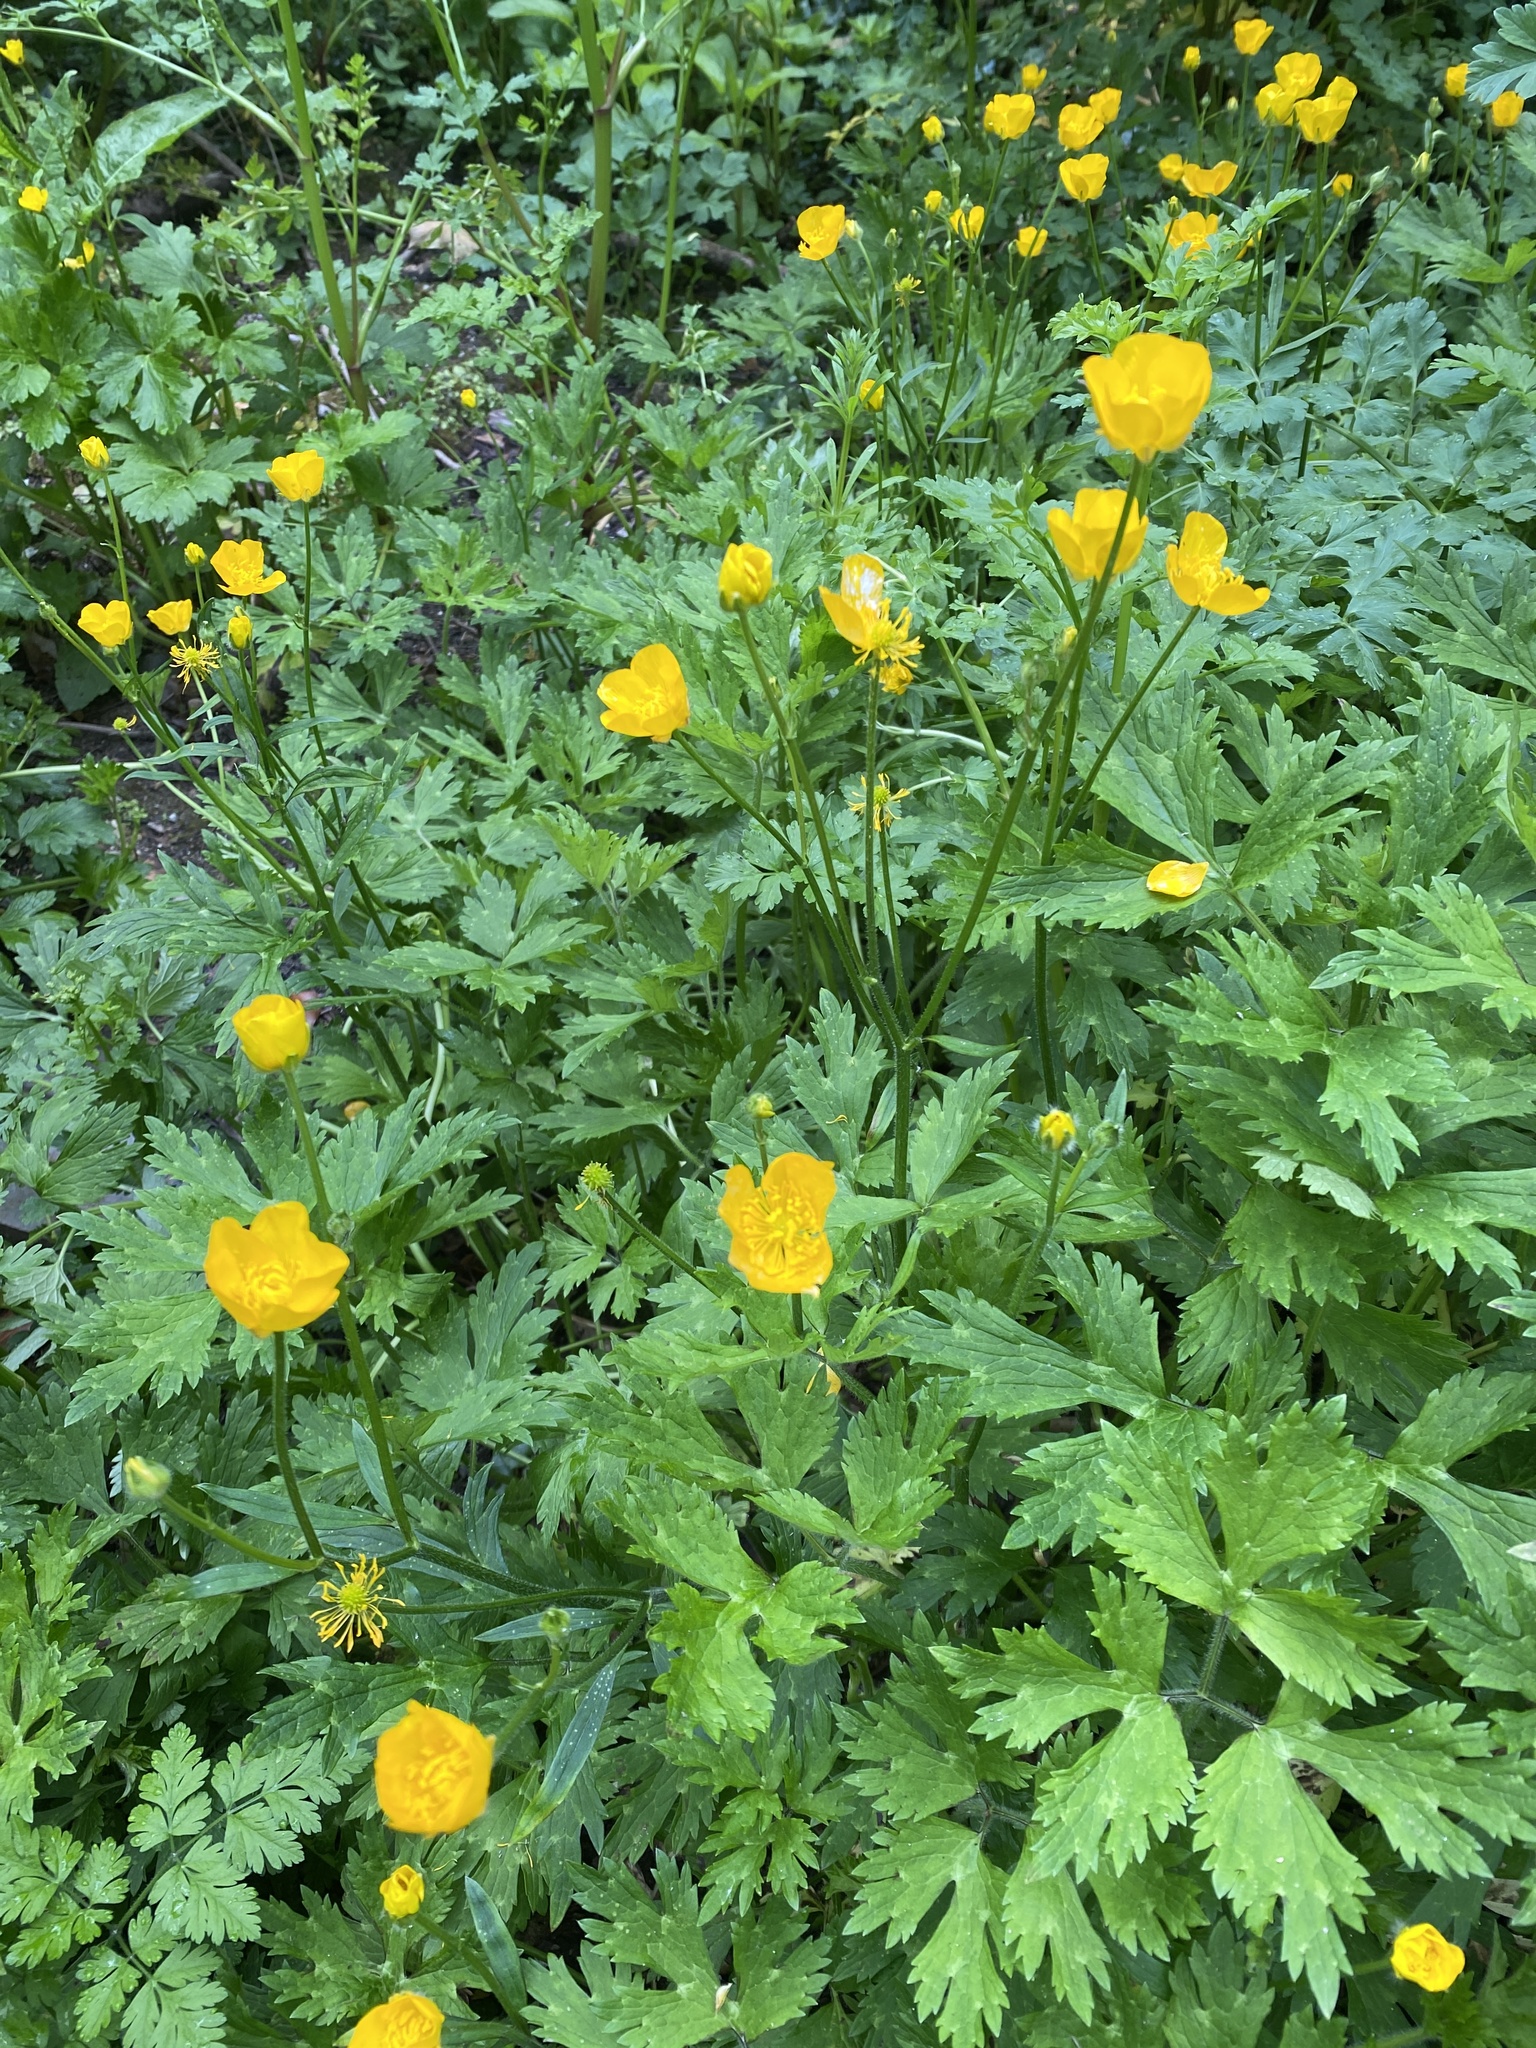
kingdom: Plantae
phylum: Tracheophyta
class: Magnoliopsida
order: Ranunculales
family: Ranunculaceae
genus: Ranunculus
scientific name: Ranunculus repens
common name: Creeping buttercup
